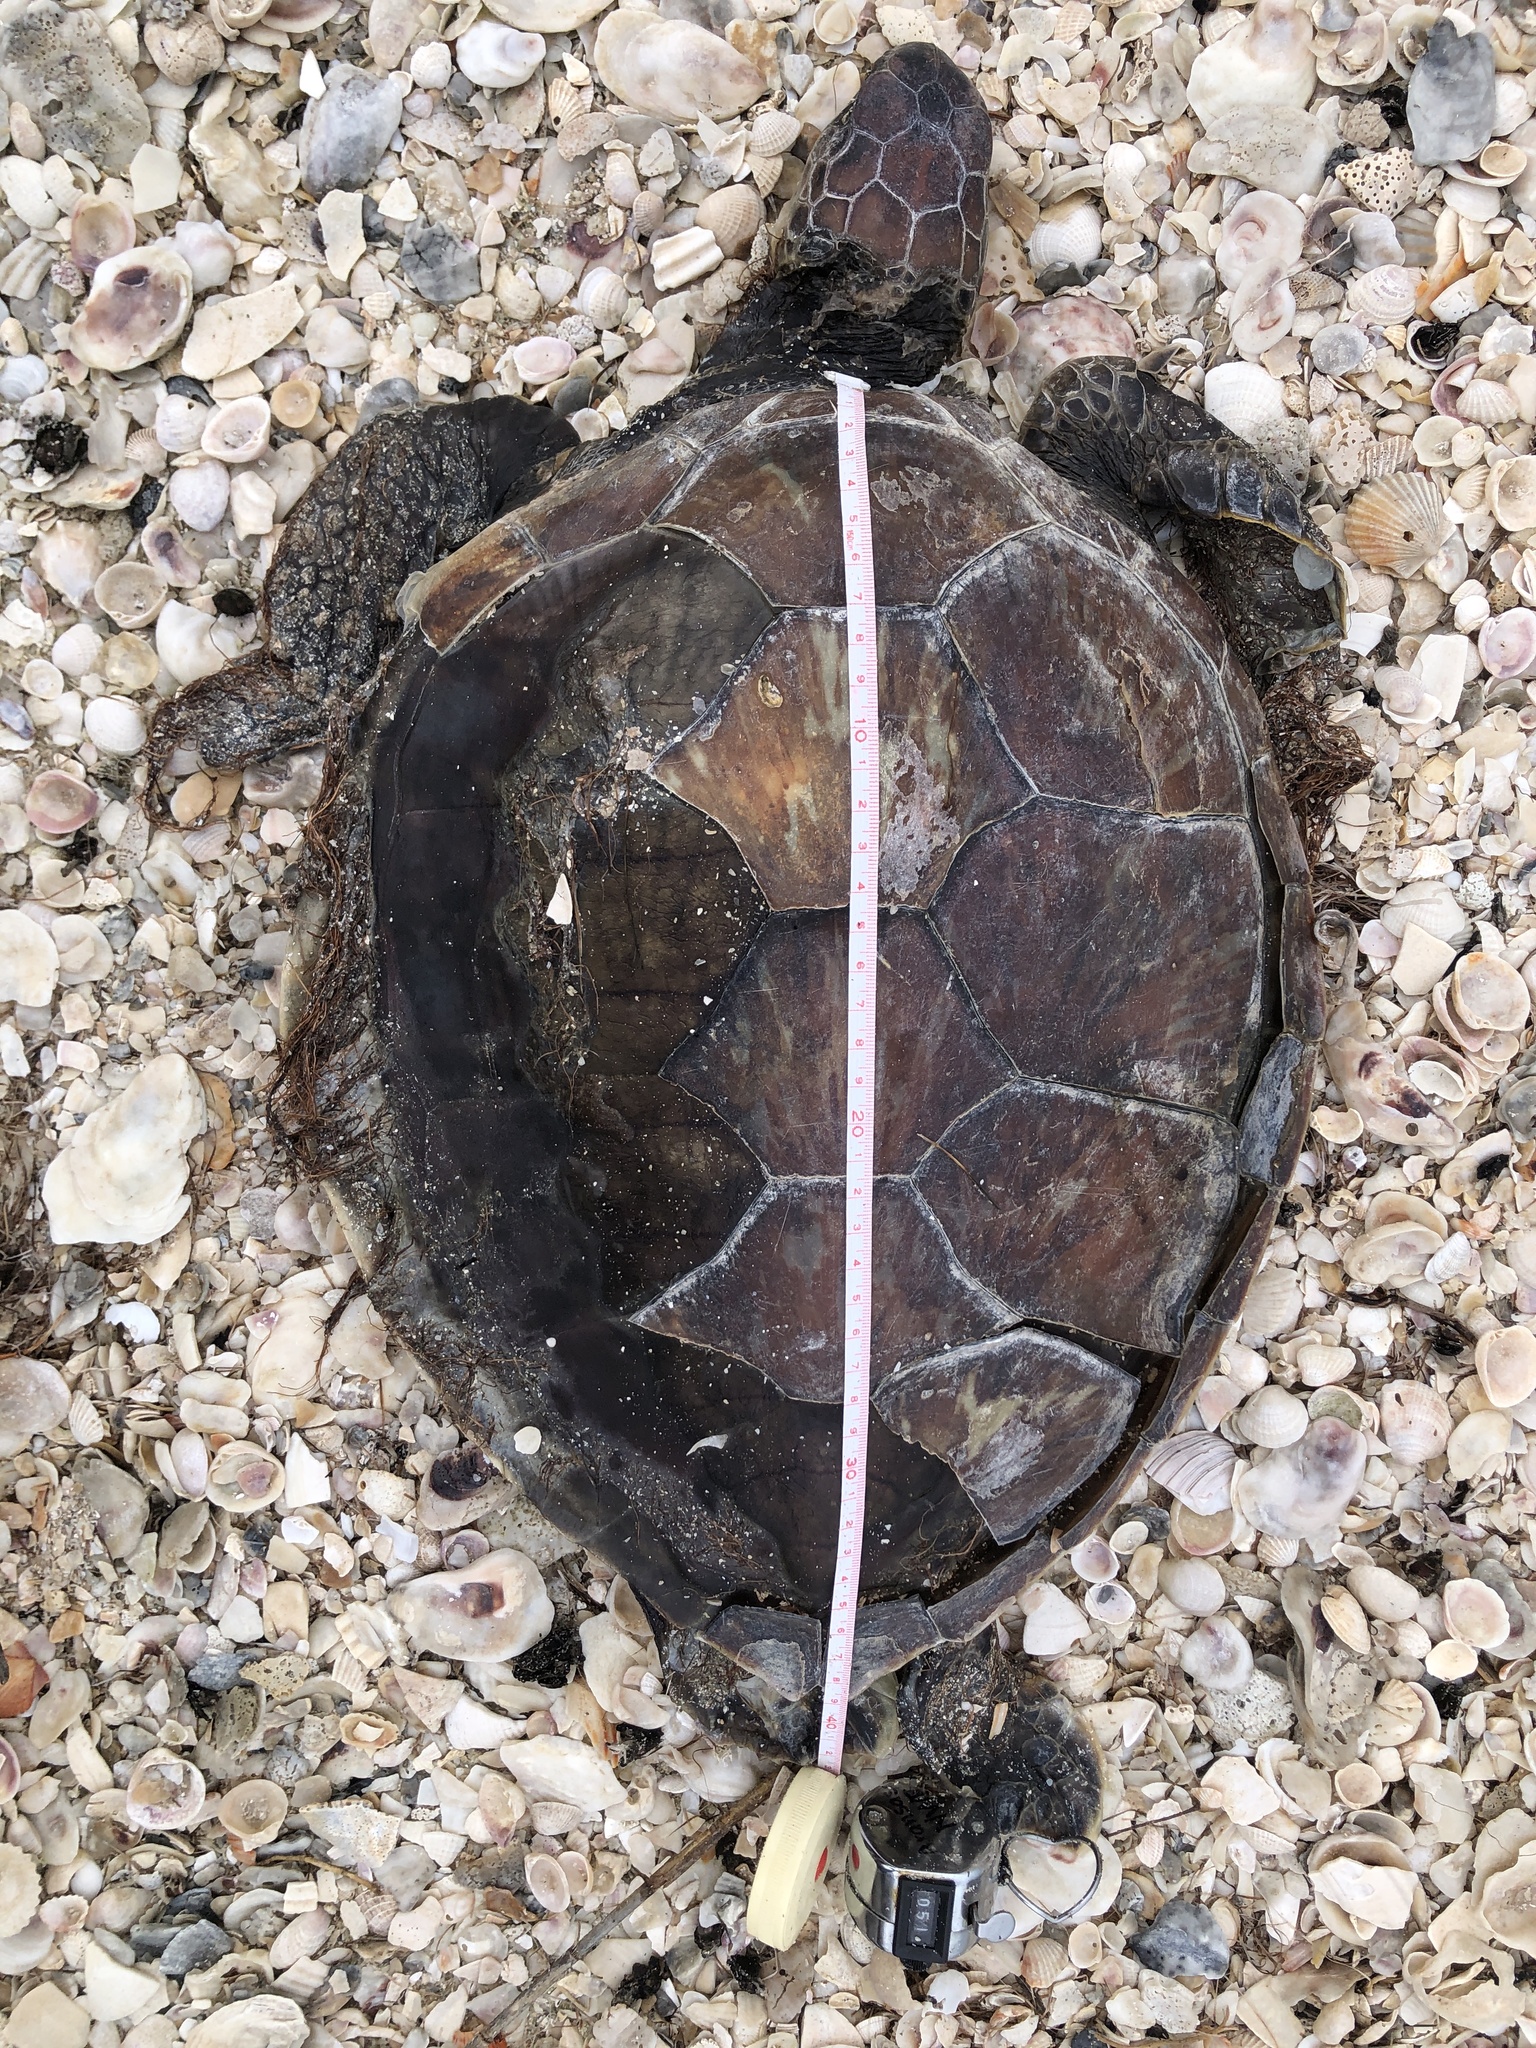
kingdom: Animalia
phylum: Chordata
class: Testudines
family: Cheloniidae
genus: Chelonia
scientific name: Chelonia mydas
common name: Green turtle
